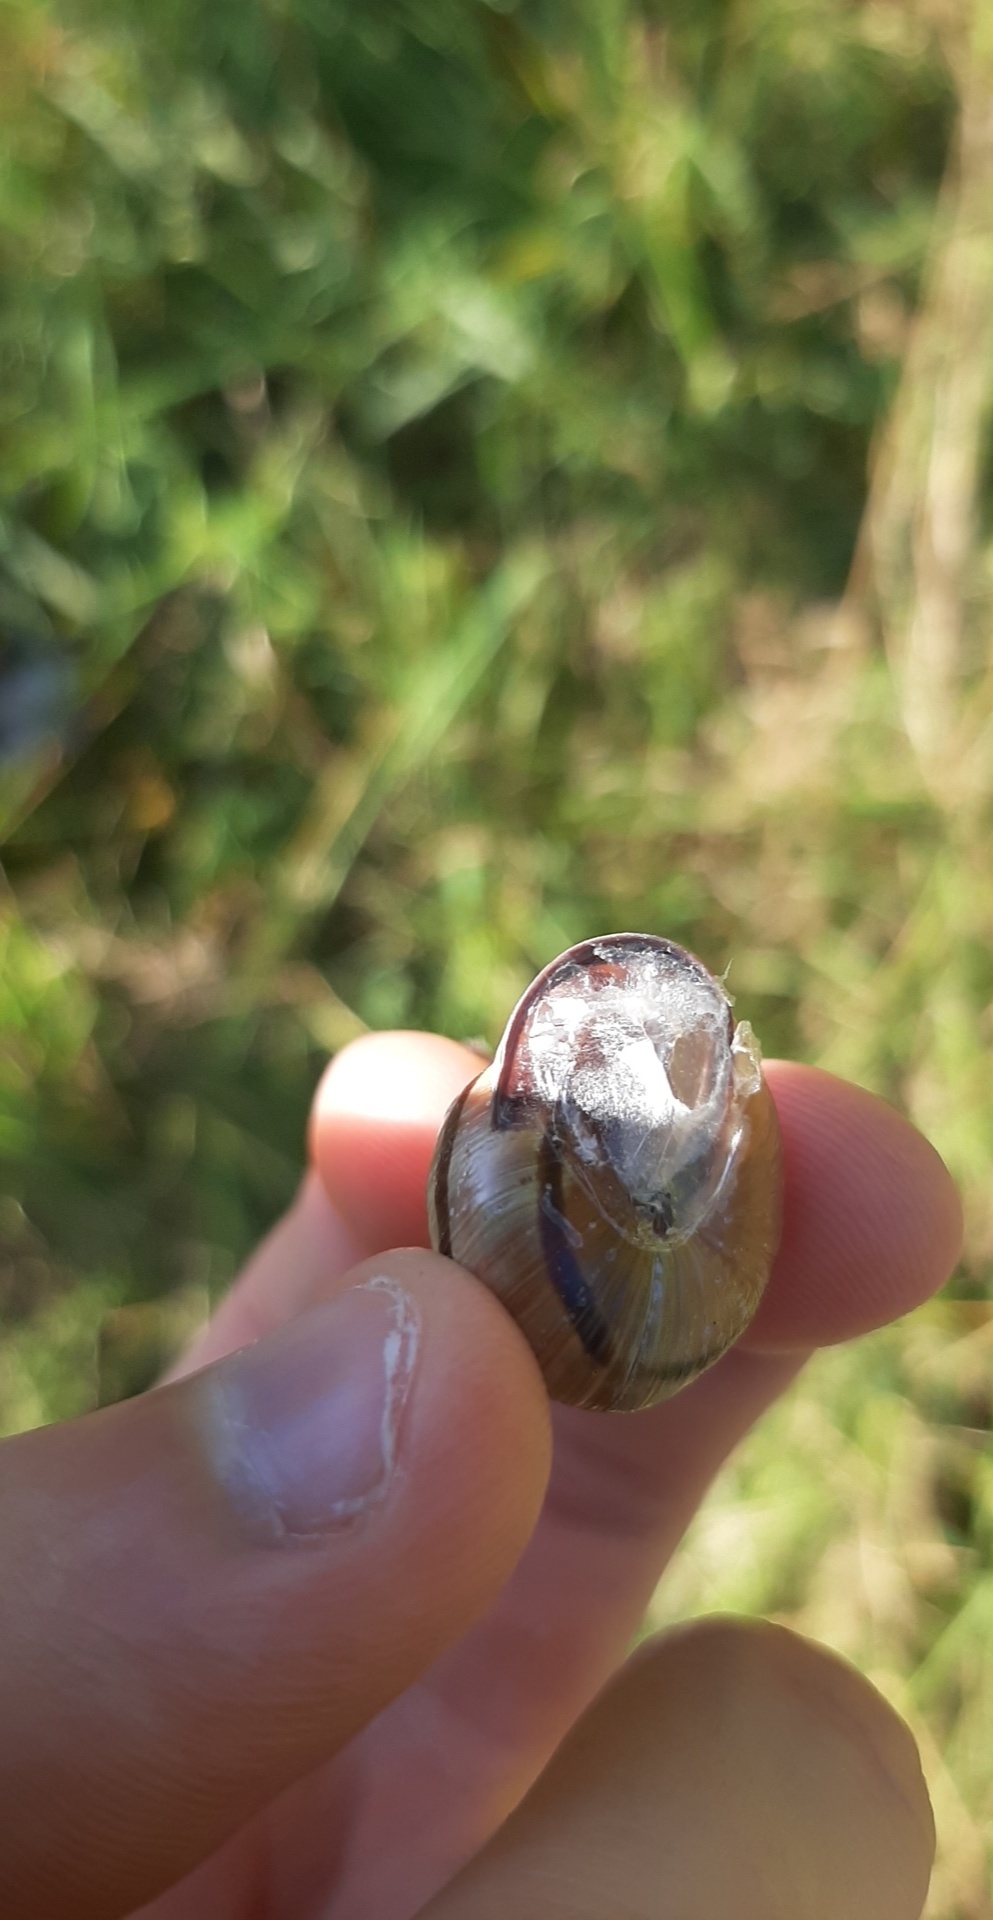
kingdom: Animalia
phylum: Mollusca
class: Gastropoda
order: Stylommatophora
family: Helicidae
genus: Cepaea
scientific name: Cepaea nemoralis
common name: Grovesnail
